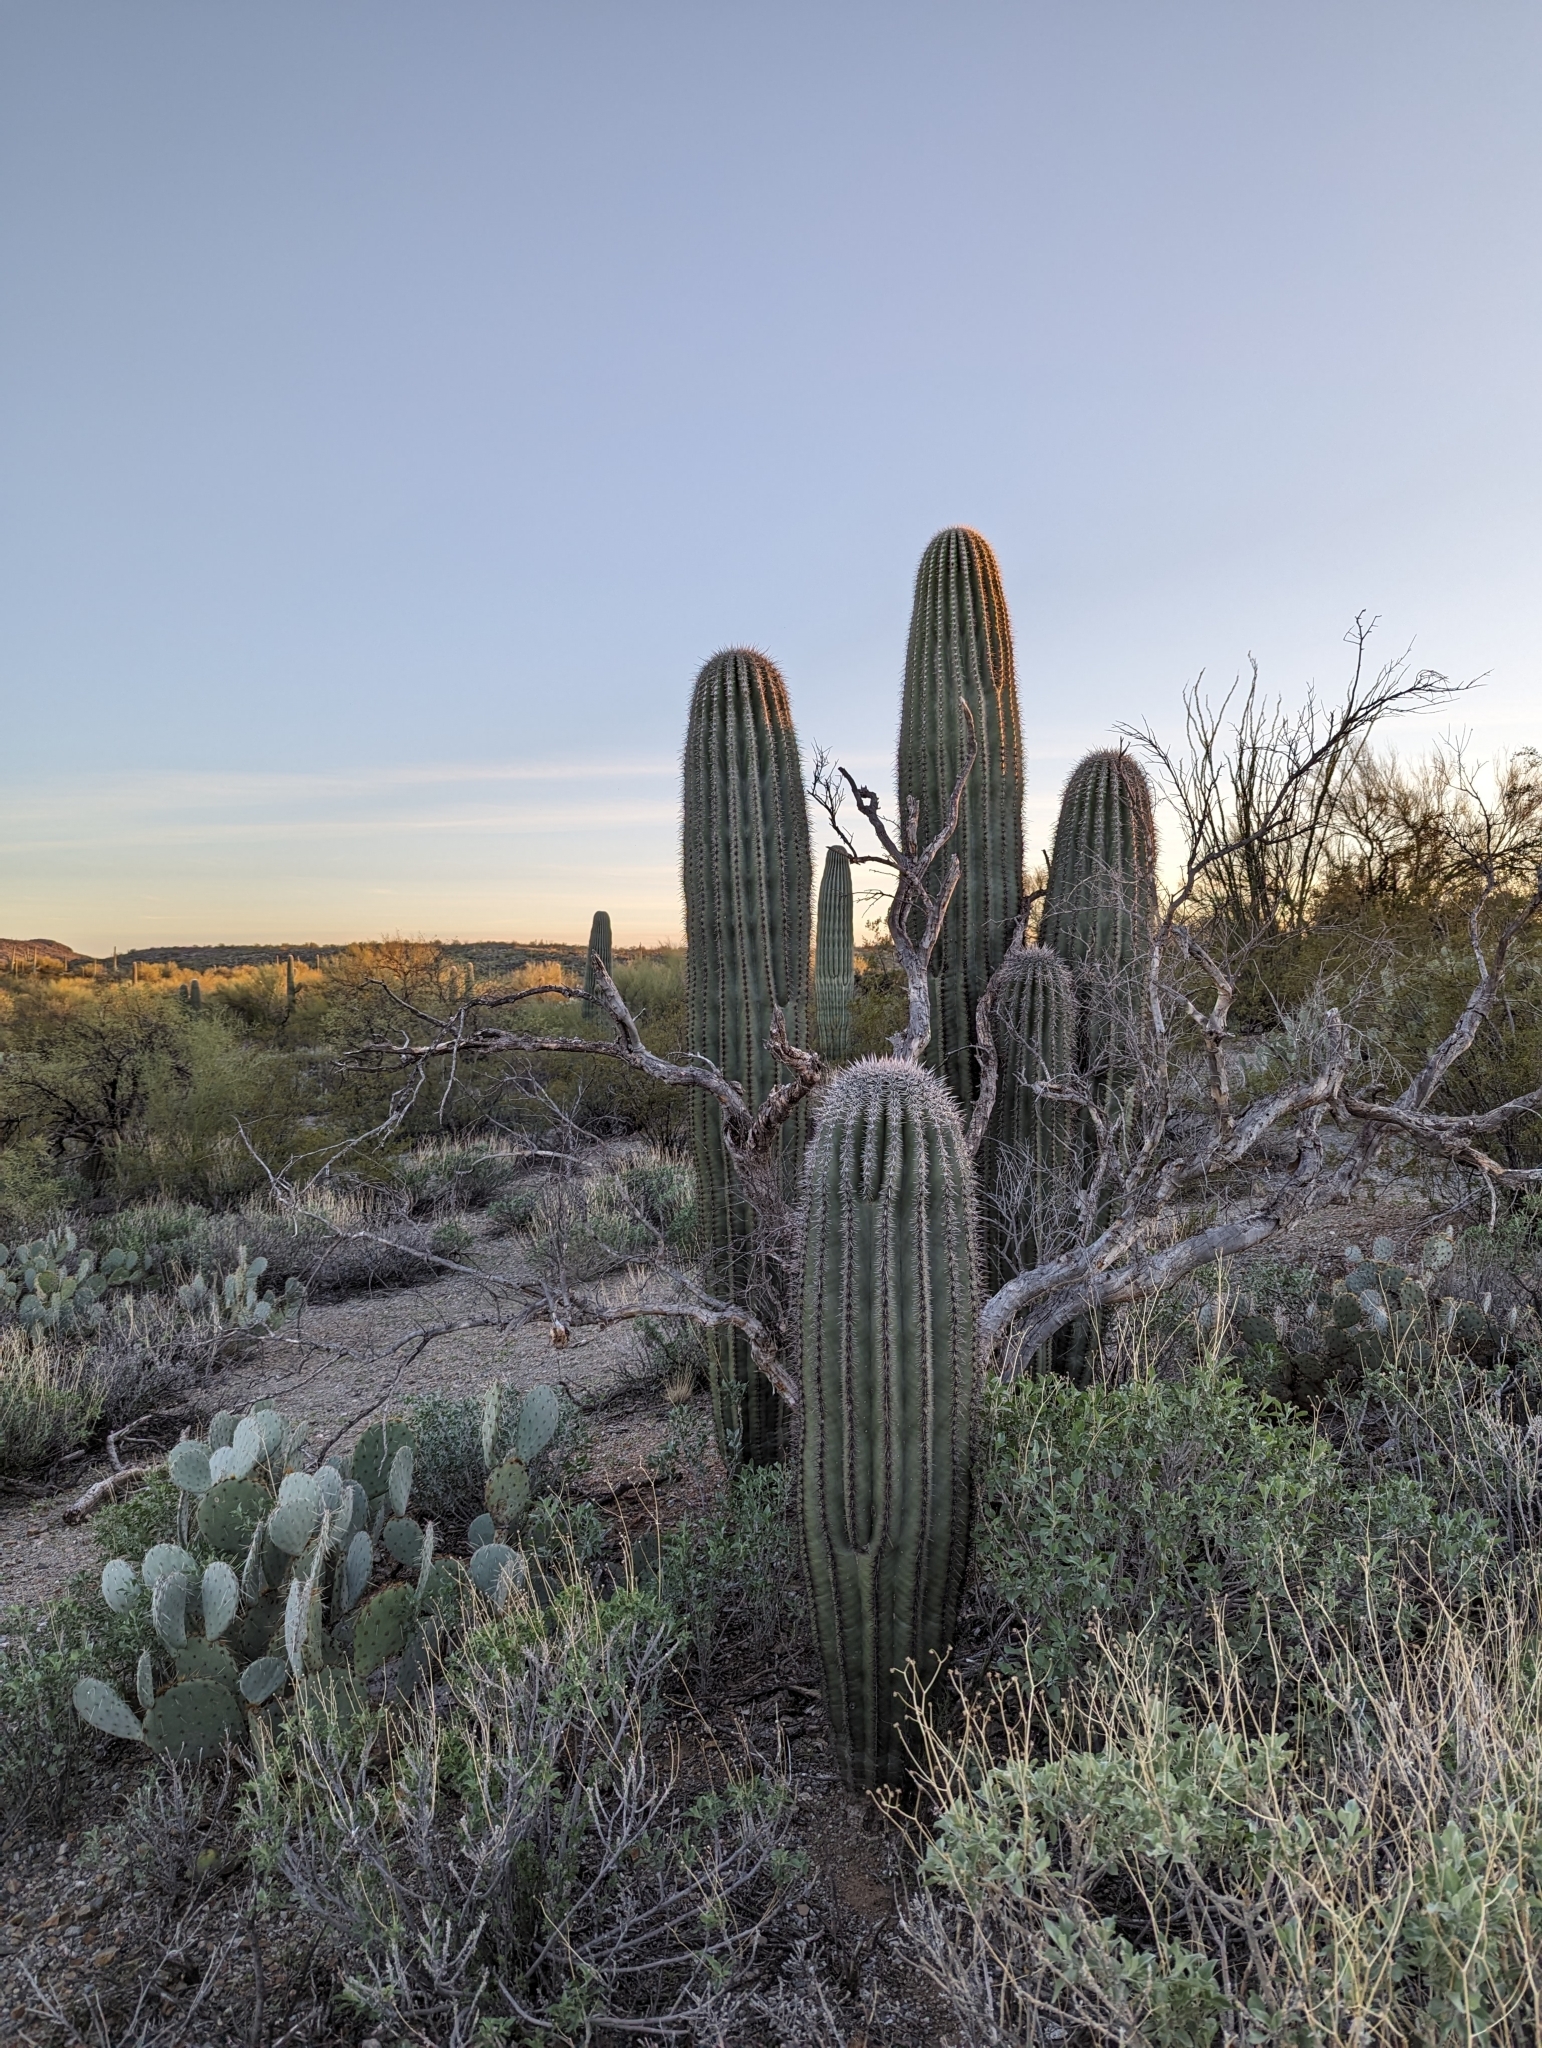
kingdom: Plantae
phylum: Tracheophyta
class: Magnoliopsida
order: Caryophyllales
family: Cactaceae
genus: Carnegiea
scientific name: Carnegiea gigantea
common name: Saguaro
